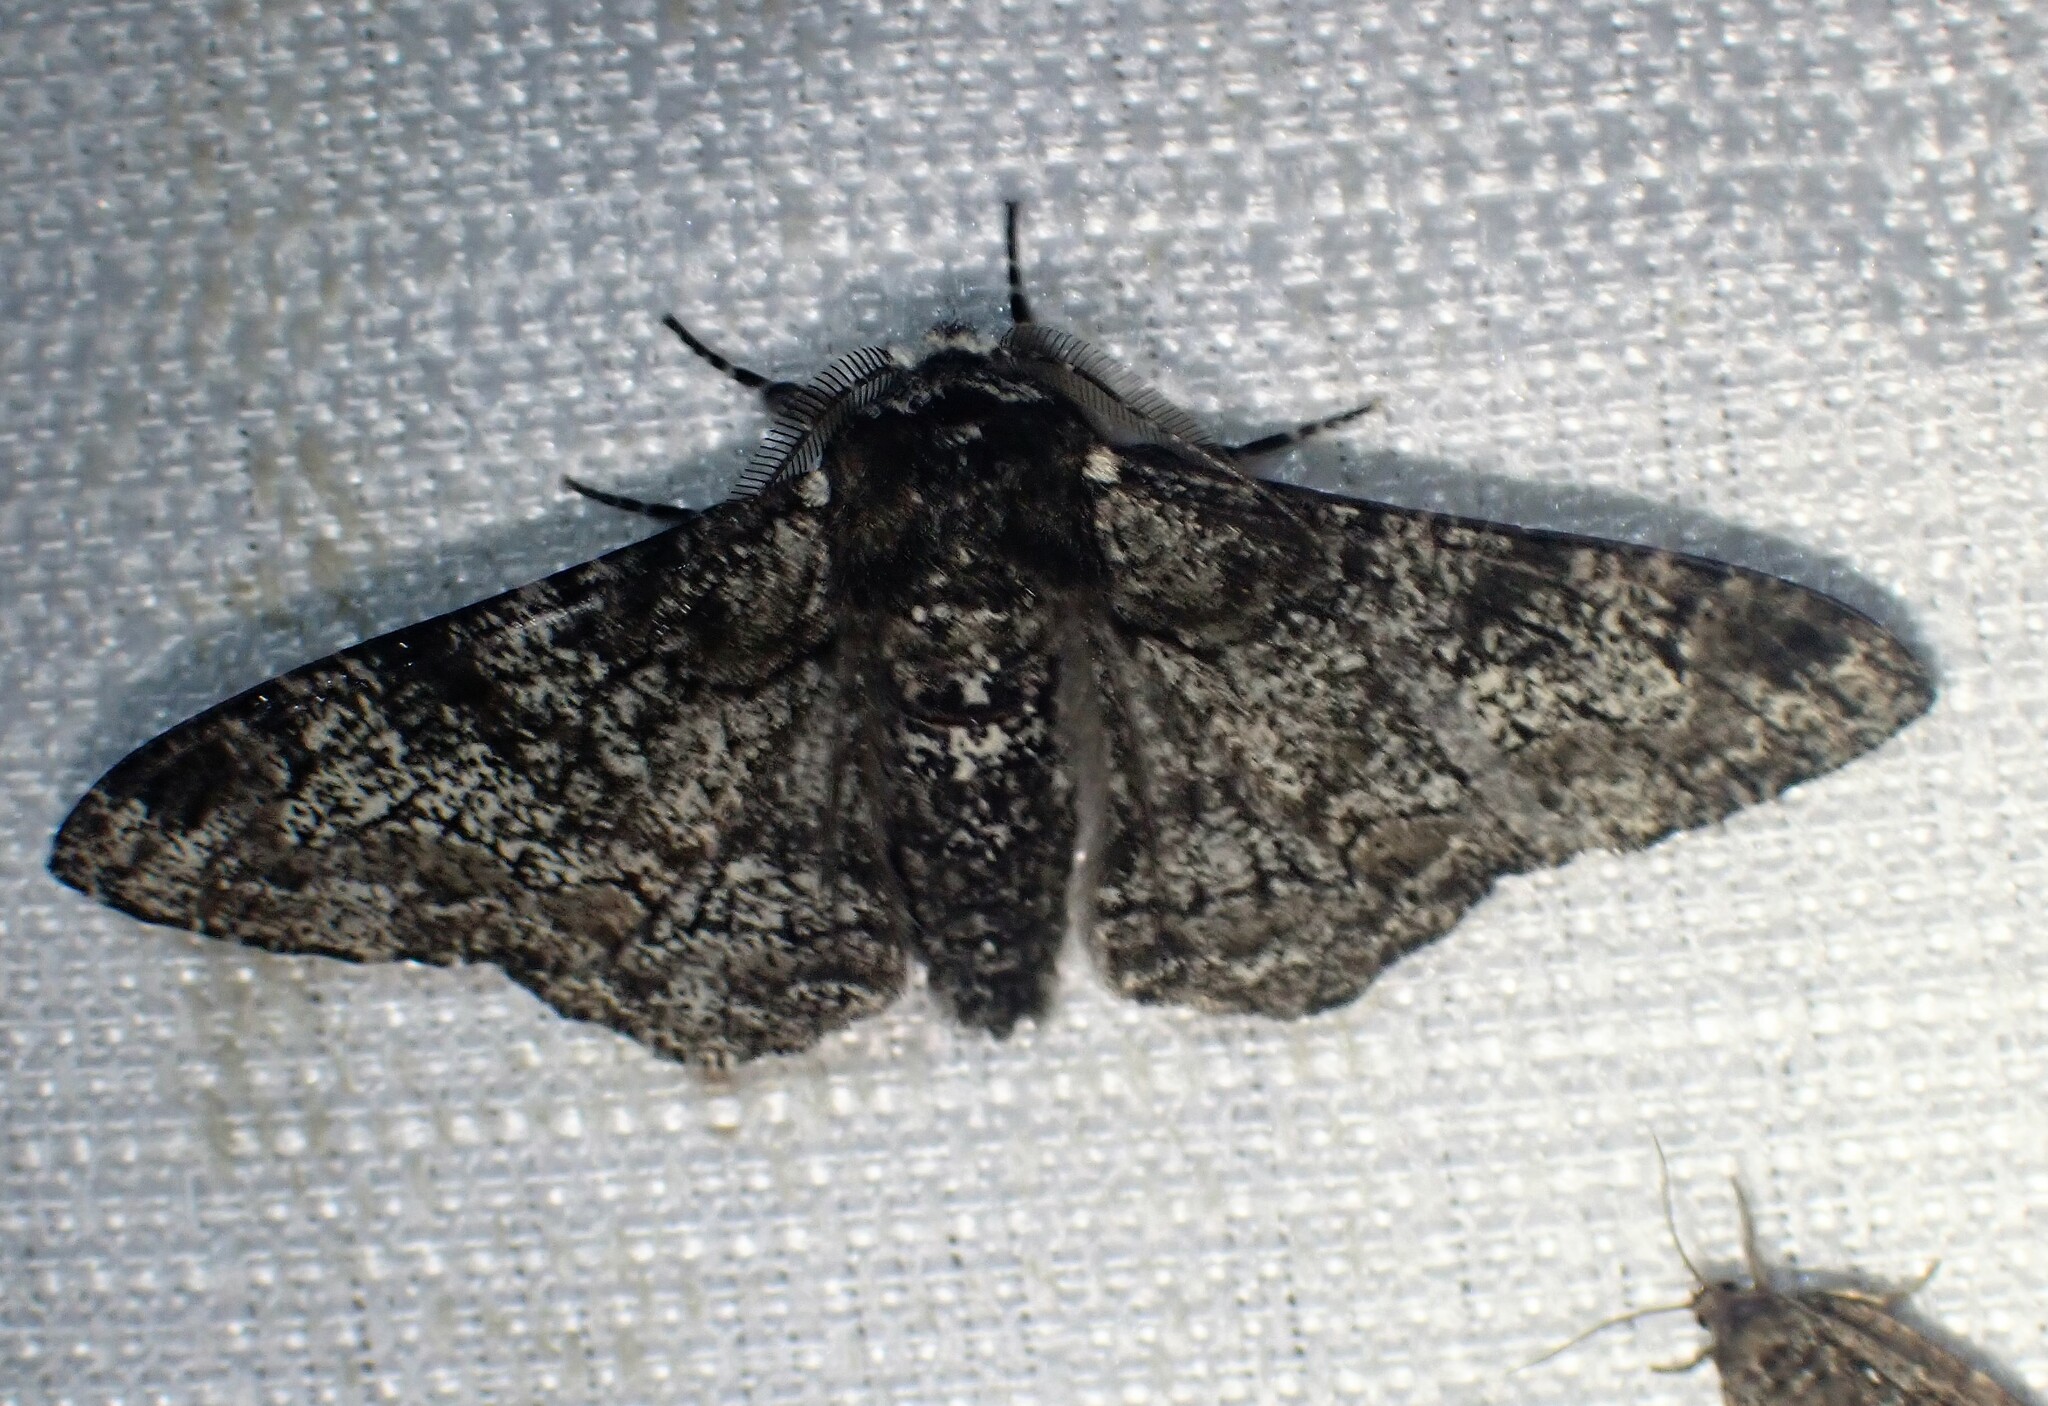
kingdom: Animalia
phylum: Arthropoda
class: Insecta
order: Lepidoptera
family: Geometridae
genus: Biston
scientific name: Biston betularia
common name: Peppered moth
